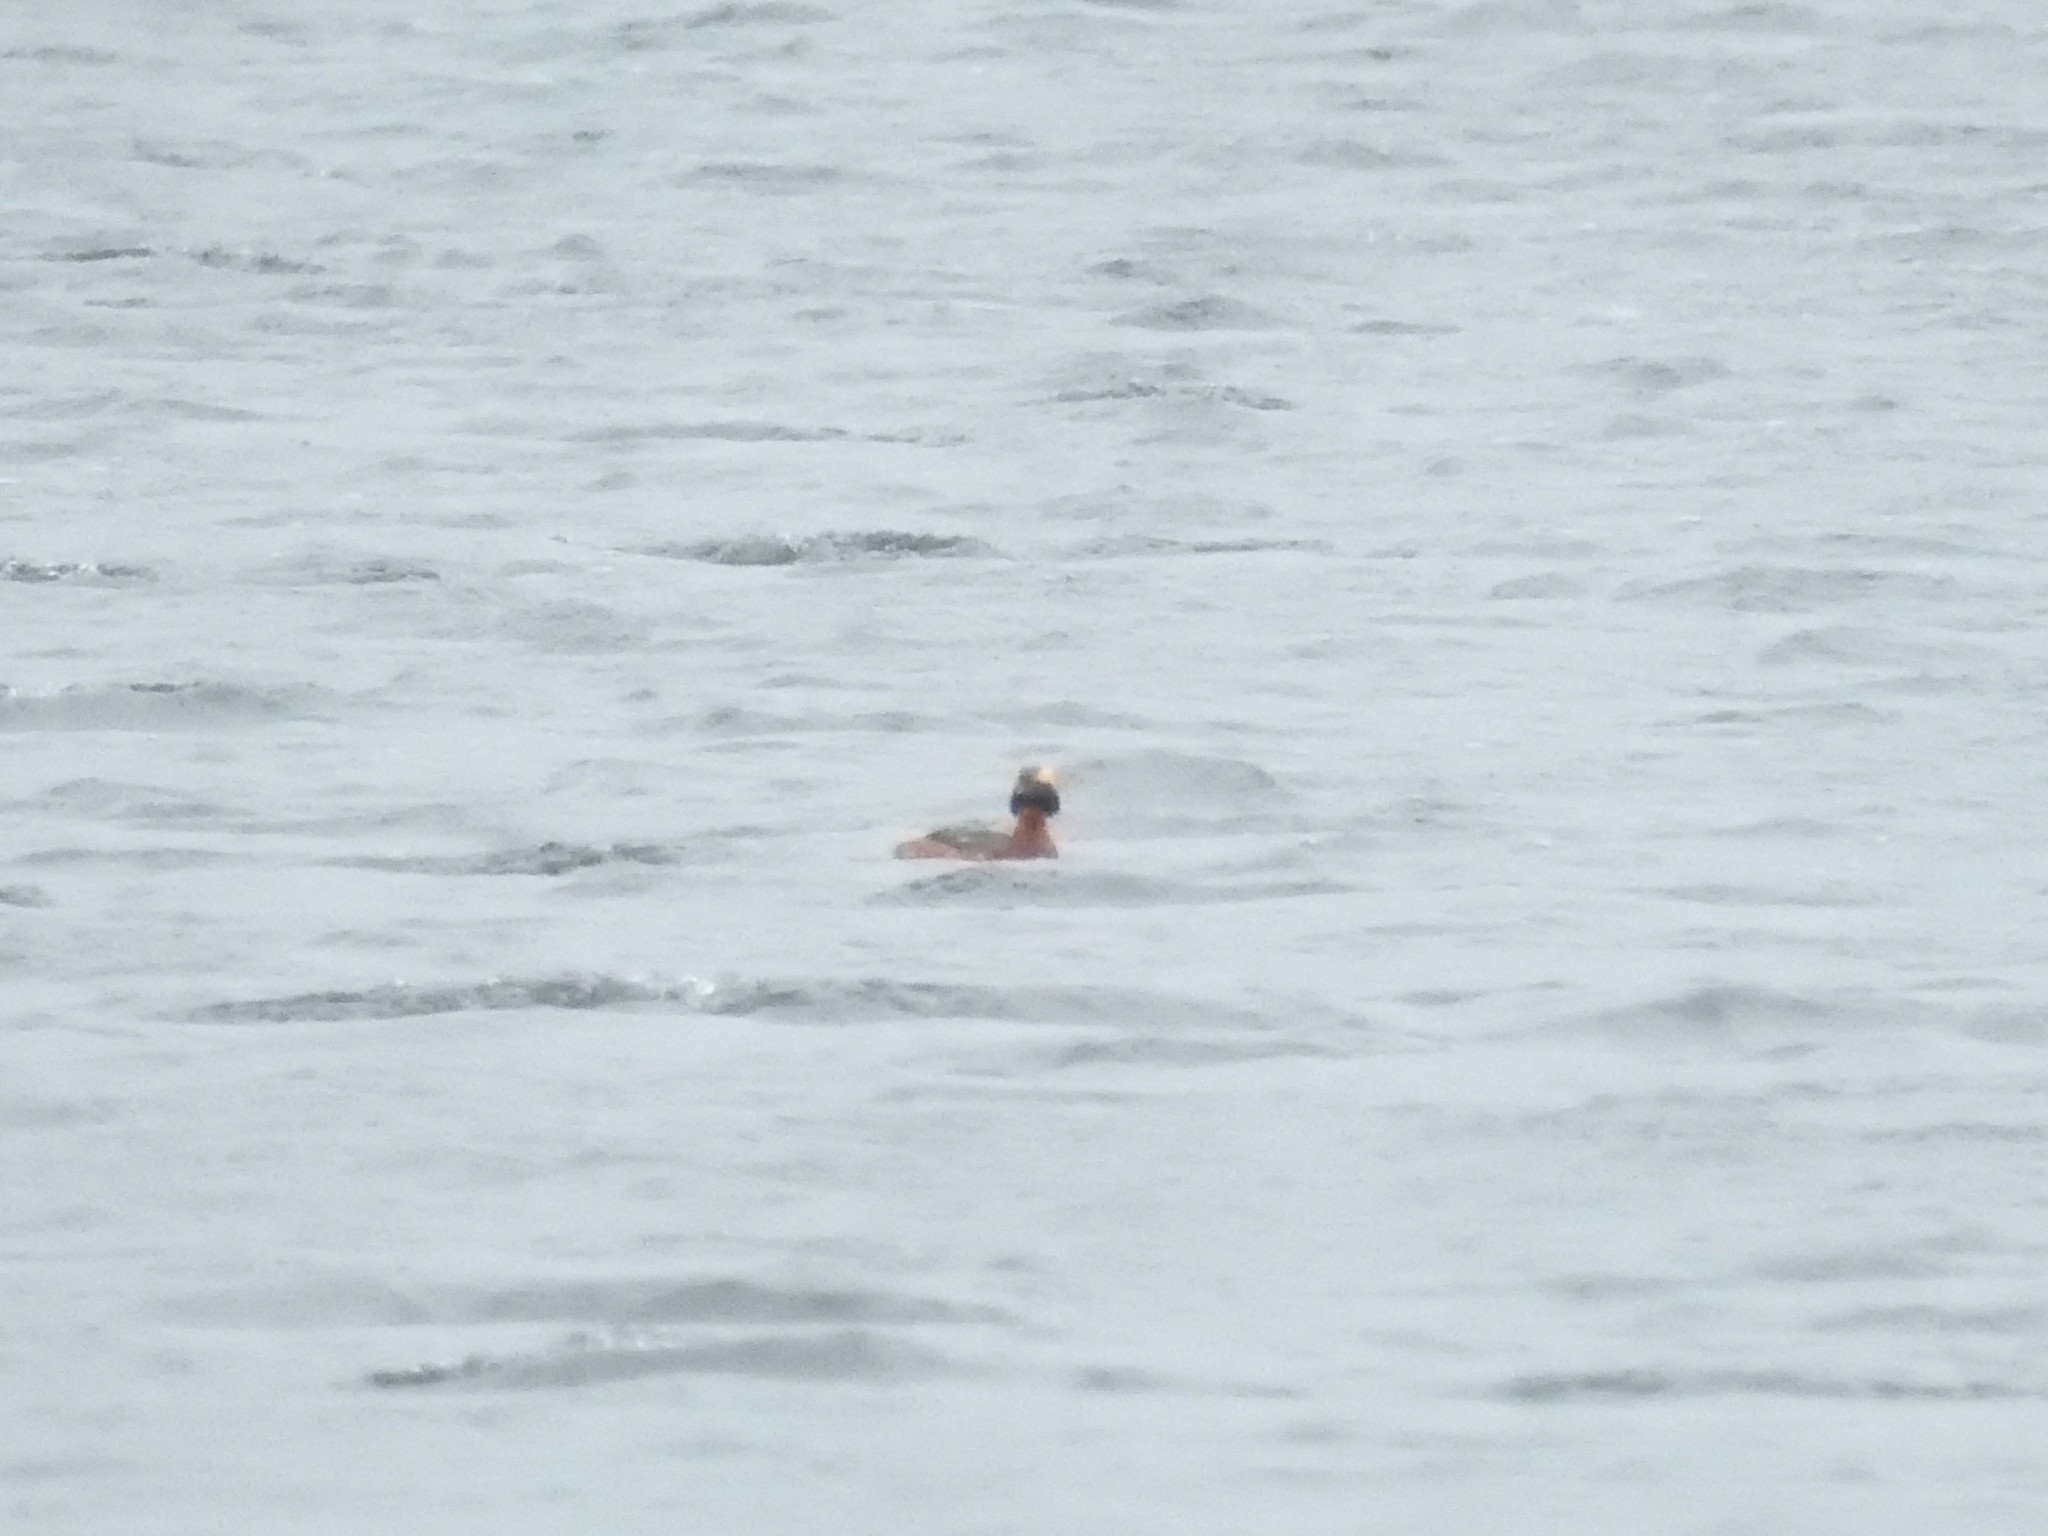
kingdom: Animalia
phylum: Chordata
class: Aves
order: Podicipediformes
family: Podicipedidae
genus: Podiceps
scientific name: Podiceps auritus
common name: Horned grebe
